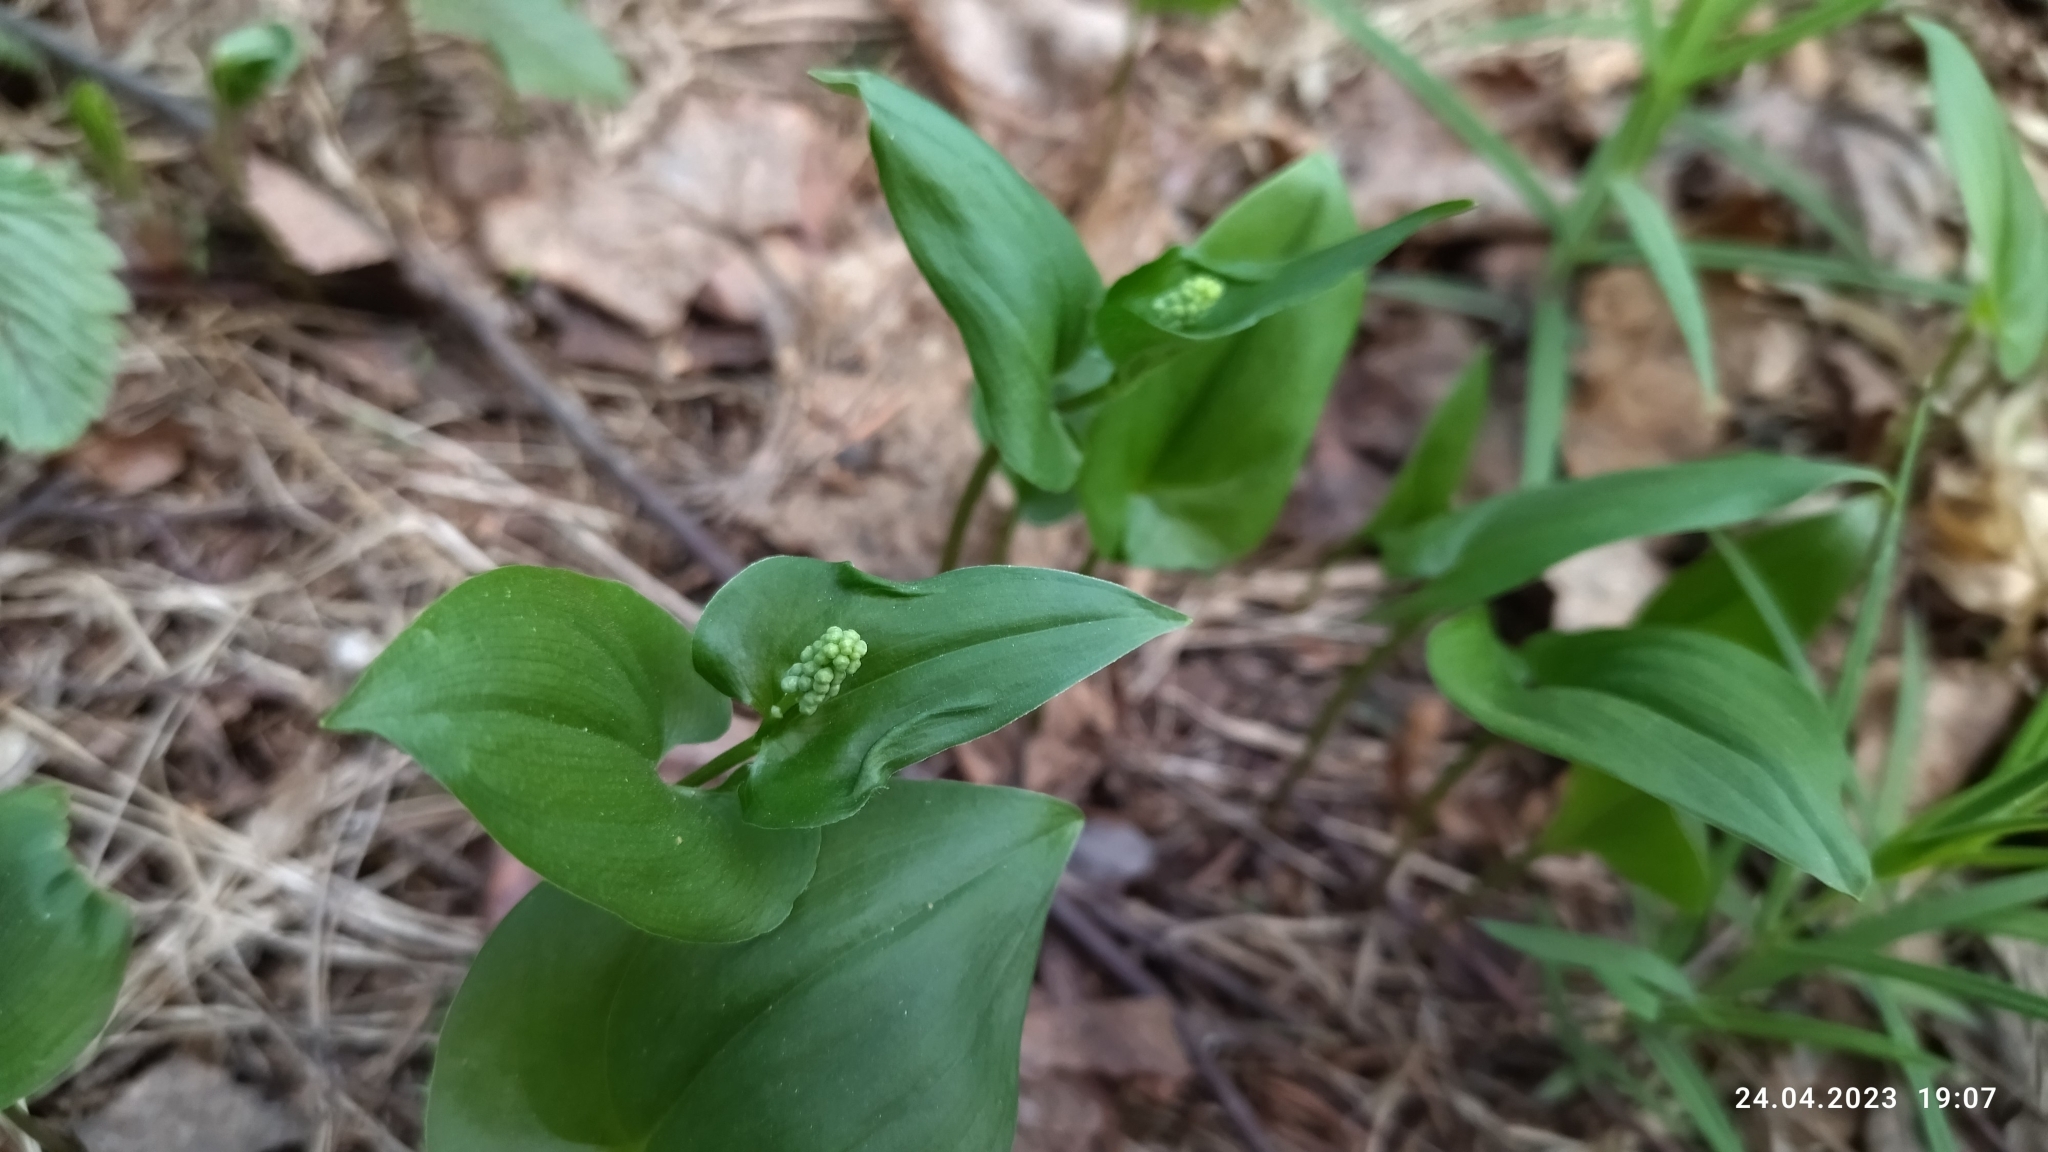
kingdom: Plantae
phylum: Tracheophyta
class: Liliopsida
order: Asparagales
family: Asparagaceae
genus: Maianthemum
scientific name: Maianthemum bifolium
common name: May lily
